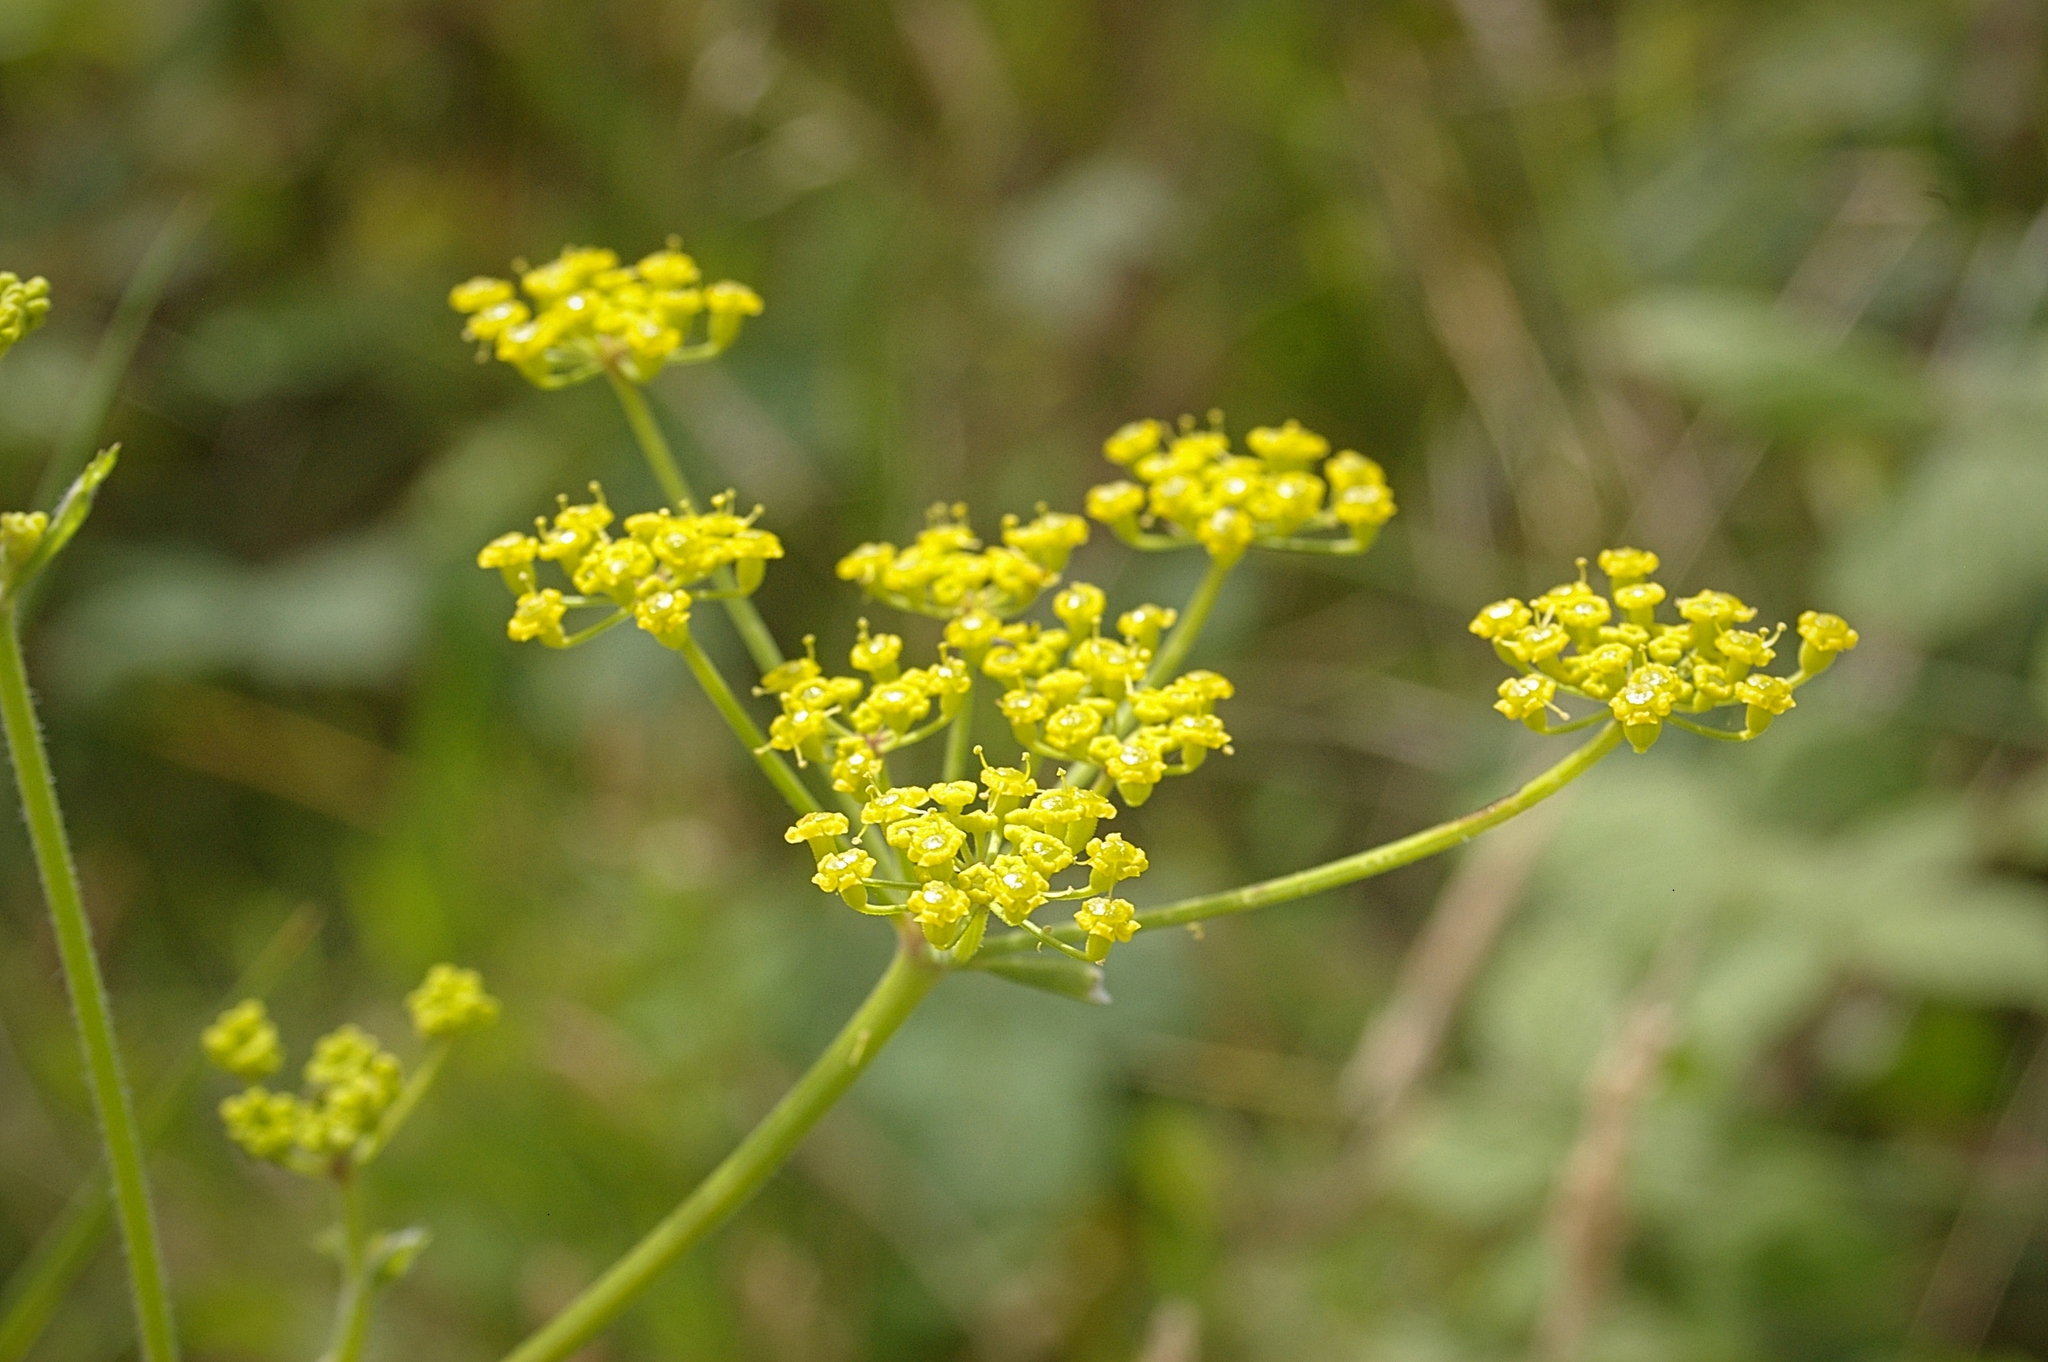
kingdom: Plantae
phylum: Tracheophyta
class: Magnoliopsida
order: Apiales
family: Apiaceae
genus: Pastinaca
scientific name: Pastinaca sativa
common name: Wild parsnip
